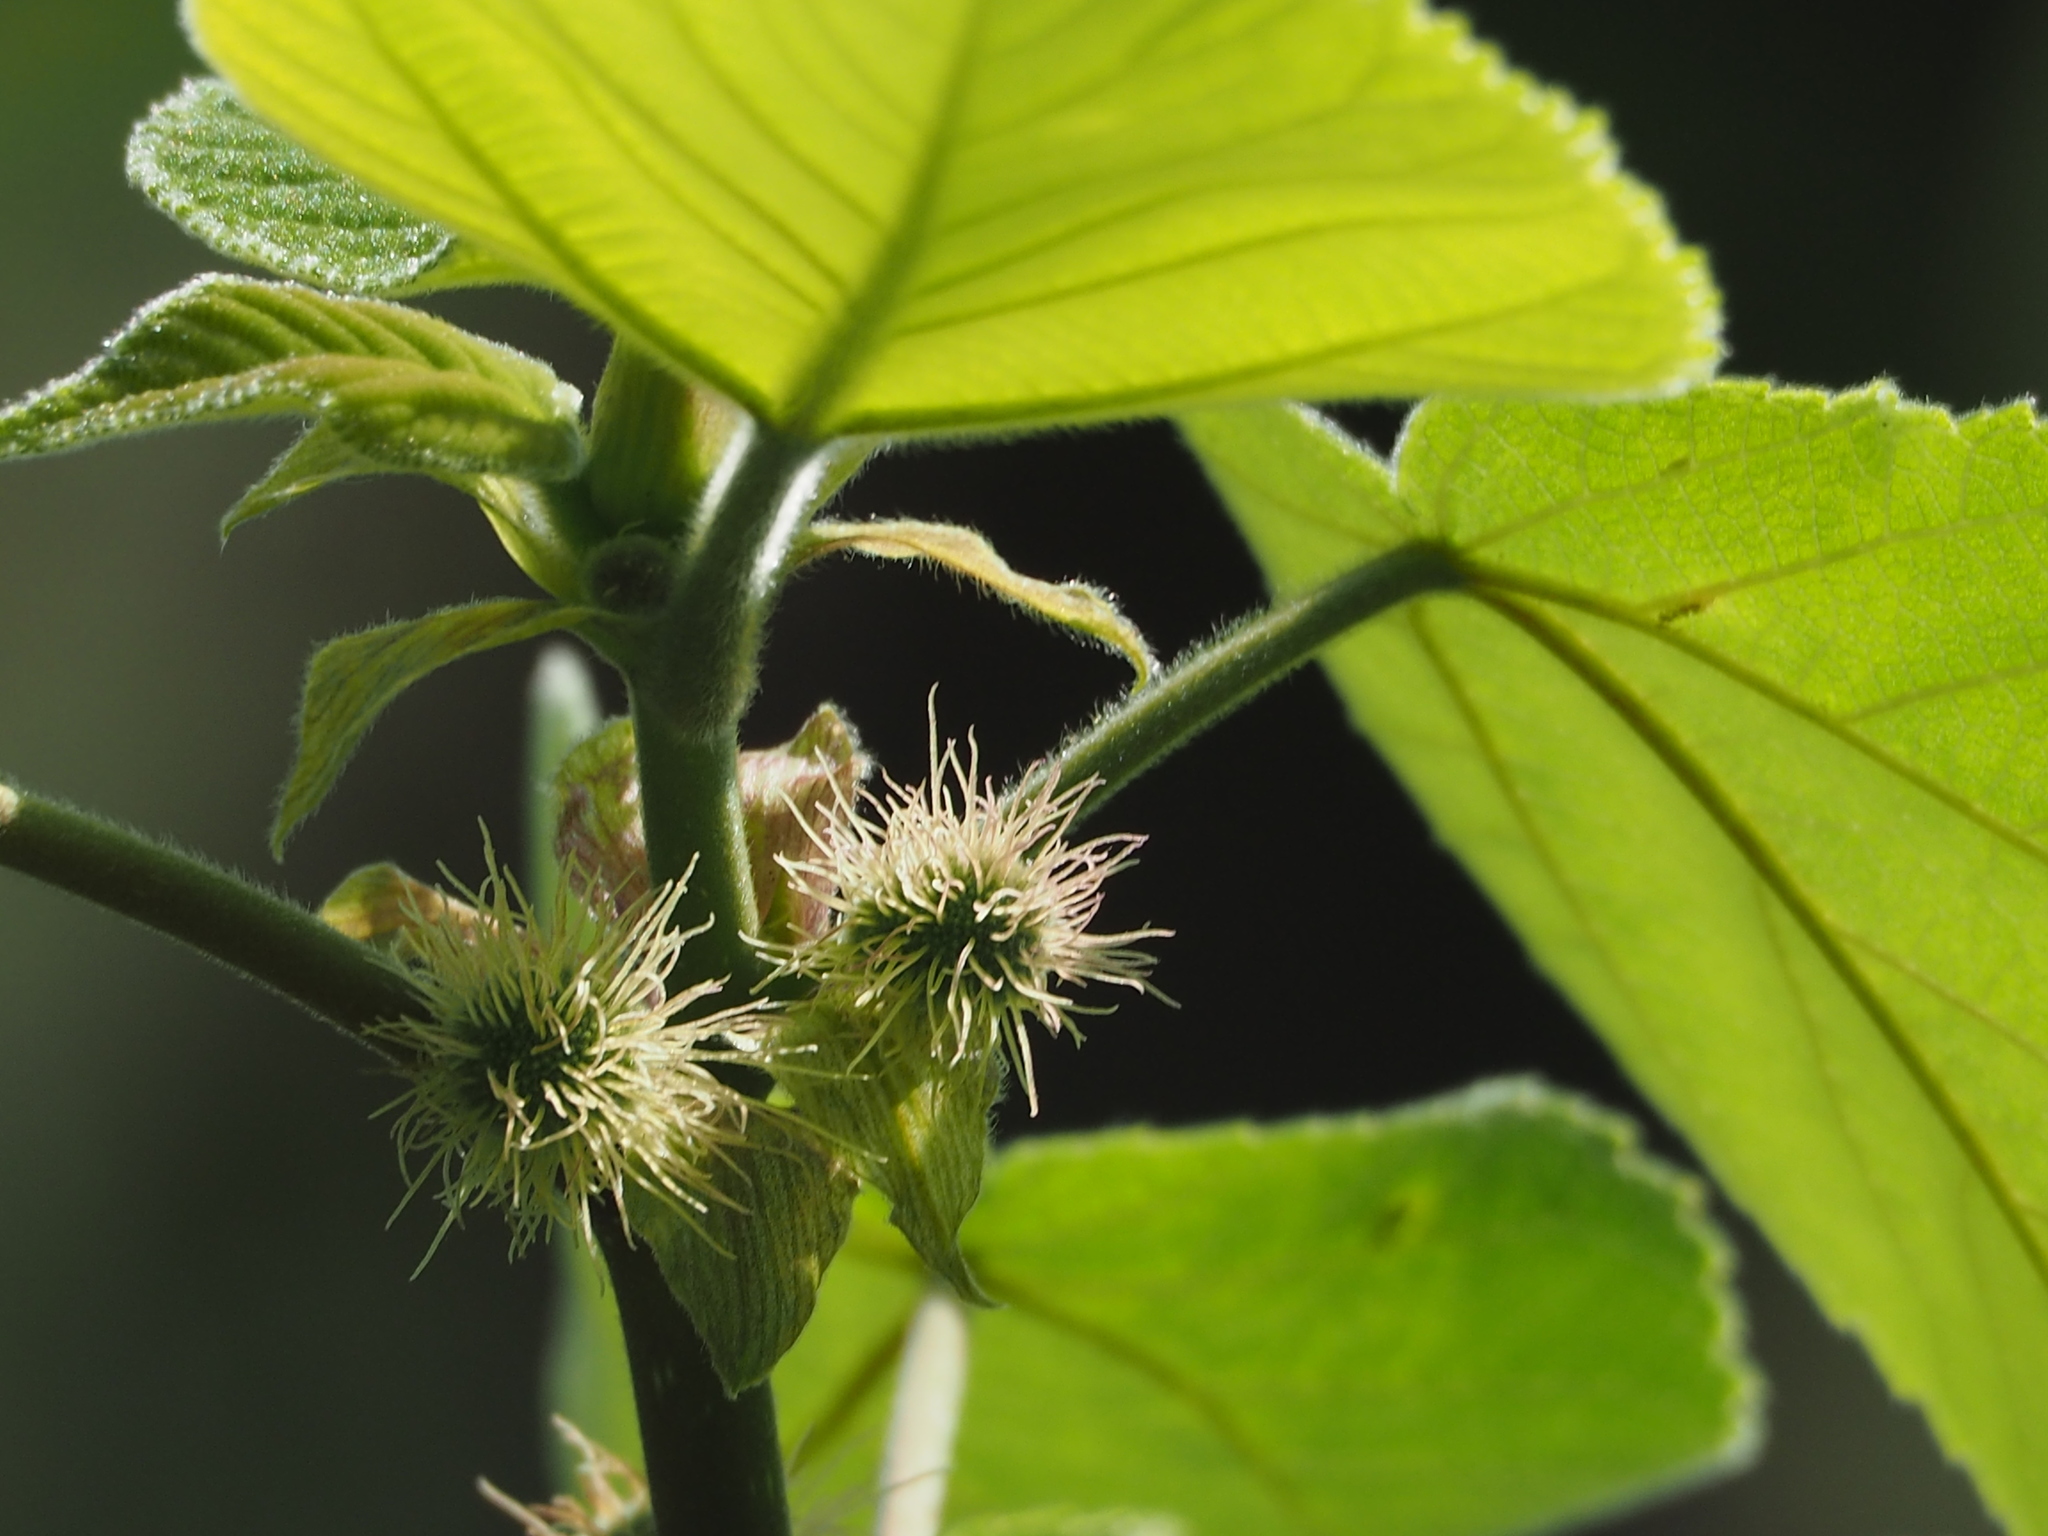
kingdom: Plantae
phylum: Tracheophyta
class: Magnoliopsida
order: Rosales
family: Moraceae
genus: Broussonetia
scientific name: Broussonetia papyrifera
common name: Paper mulberry
